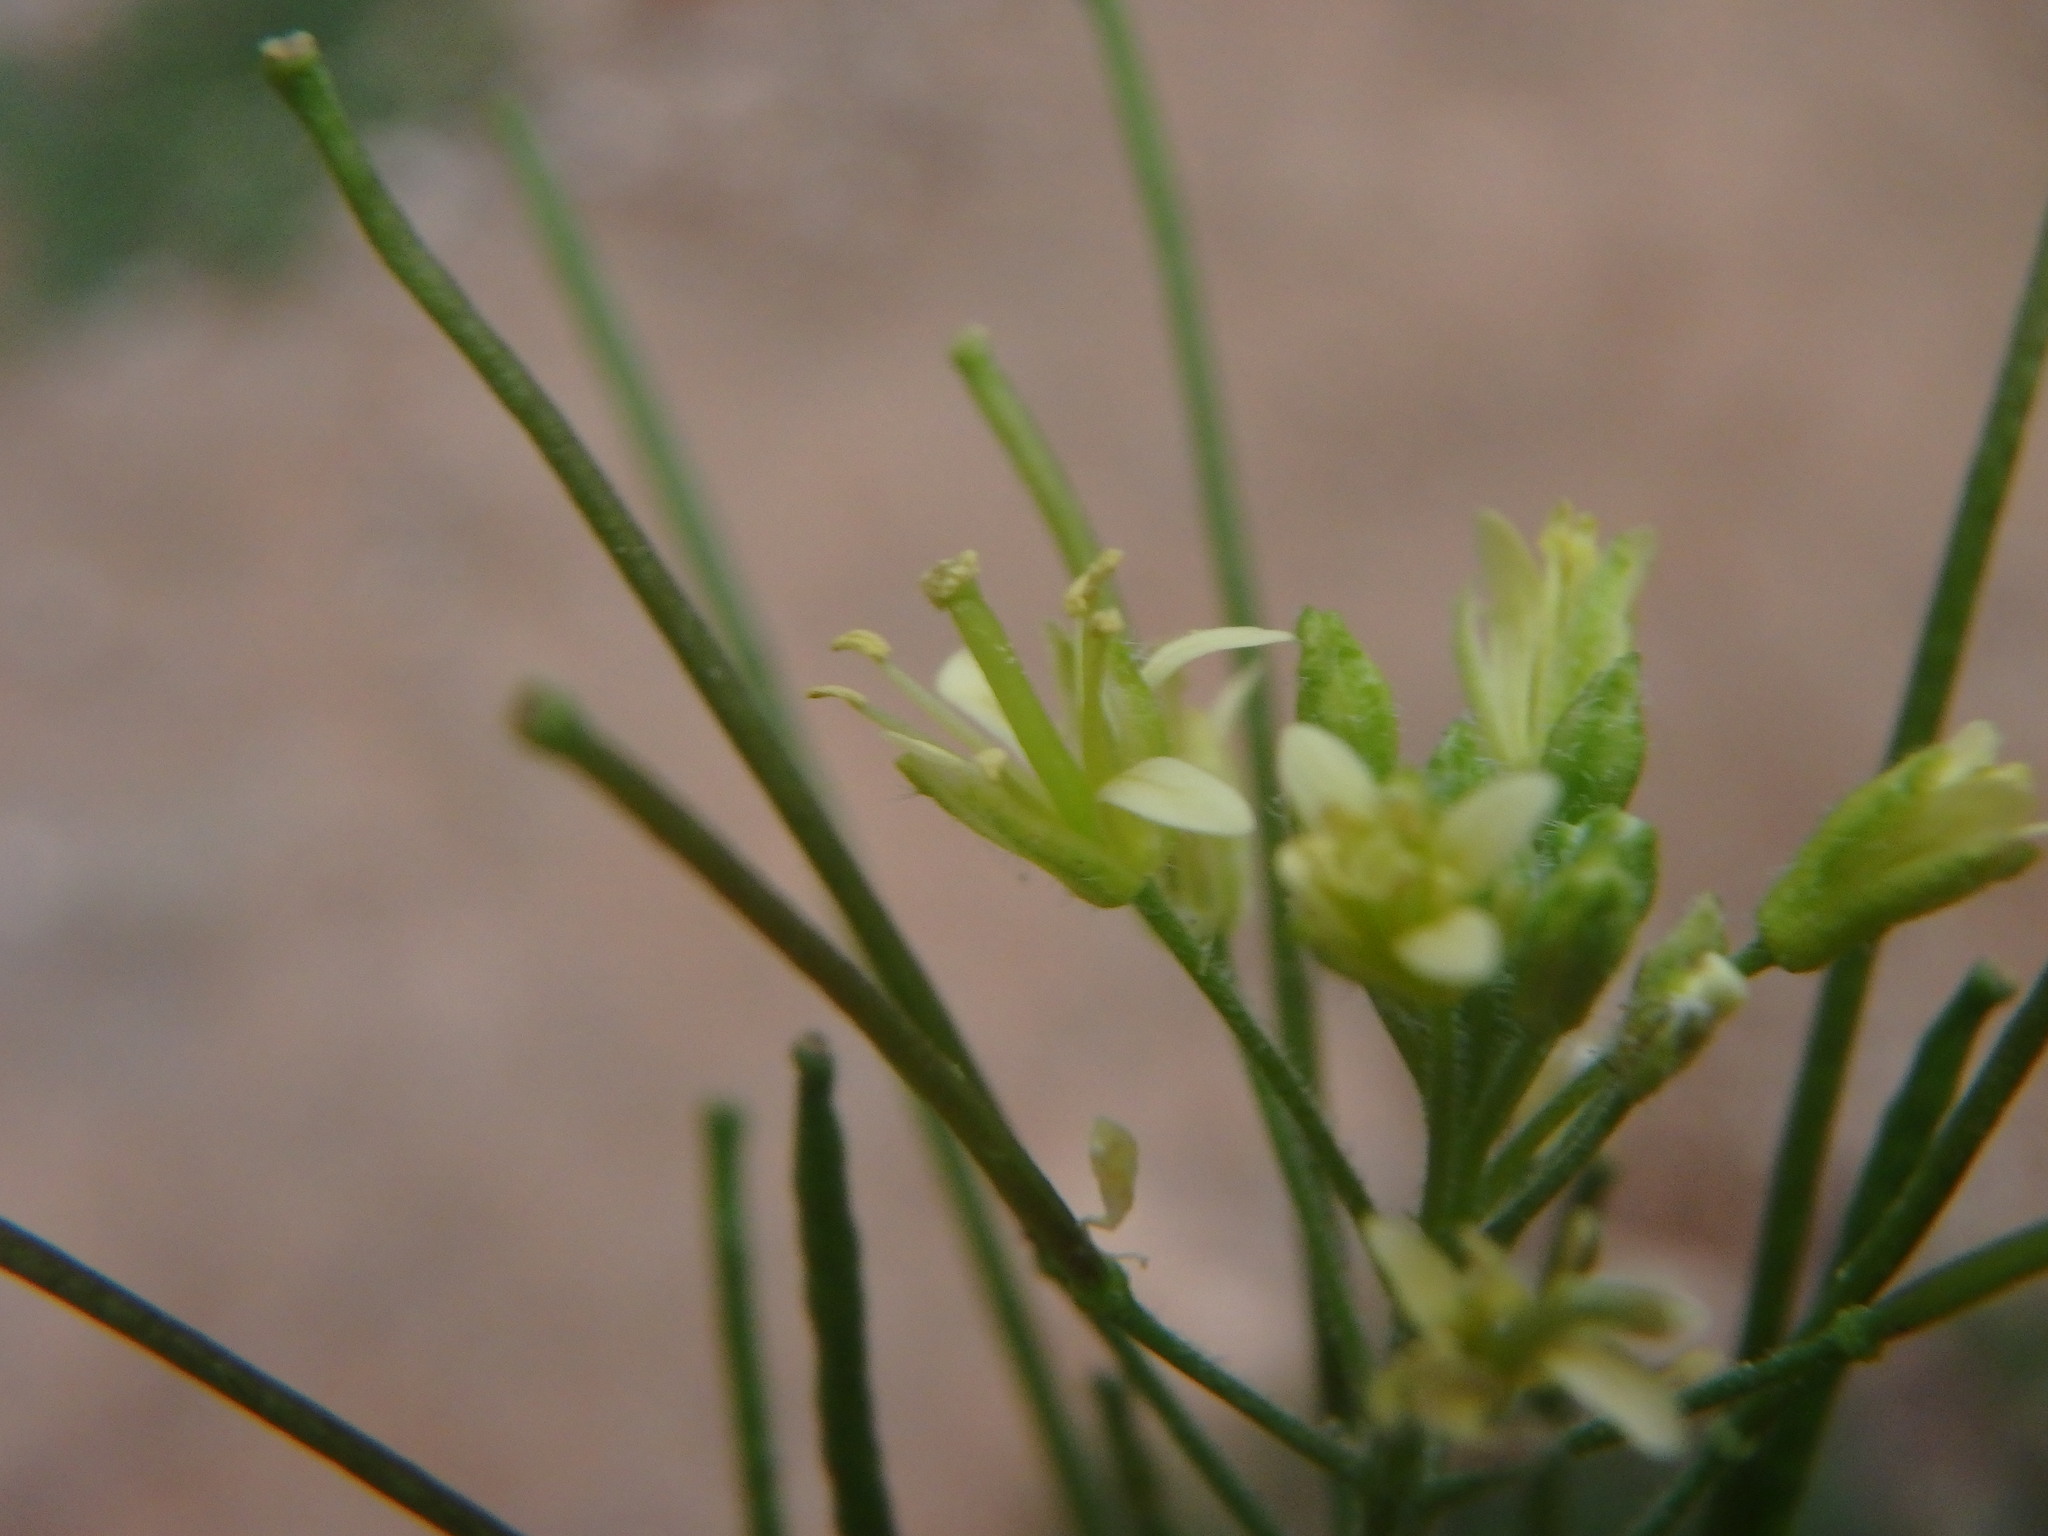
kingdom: Plantae
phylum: Tracheophyta
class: Magnoliopsida
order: Brassicales
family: Brassicaceae
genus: Sisymbrium
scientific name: Sisymbrium irio
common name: London rocket
